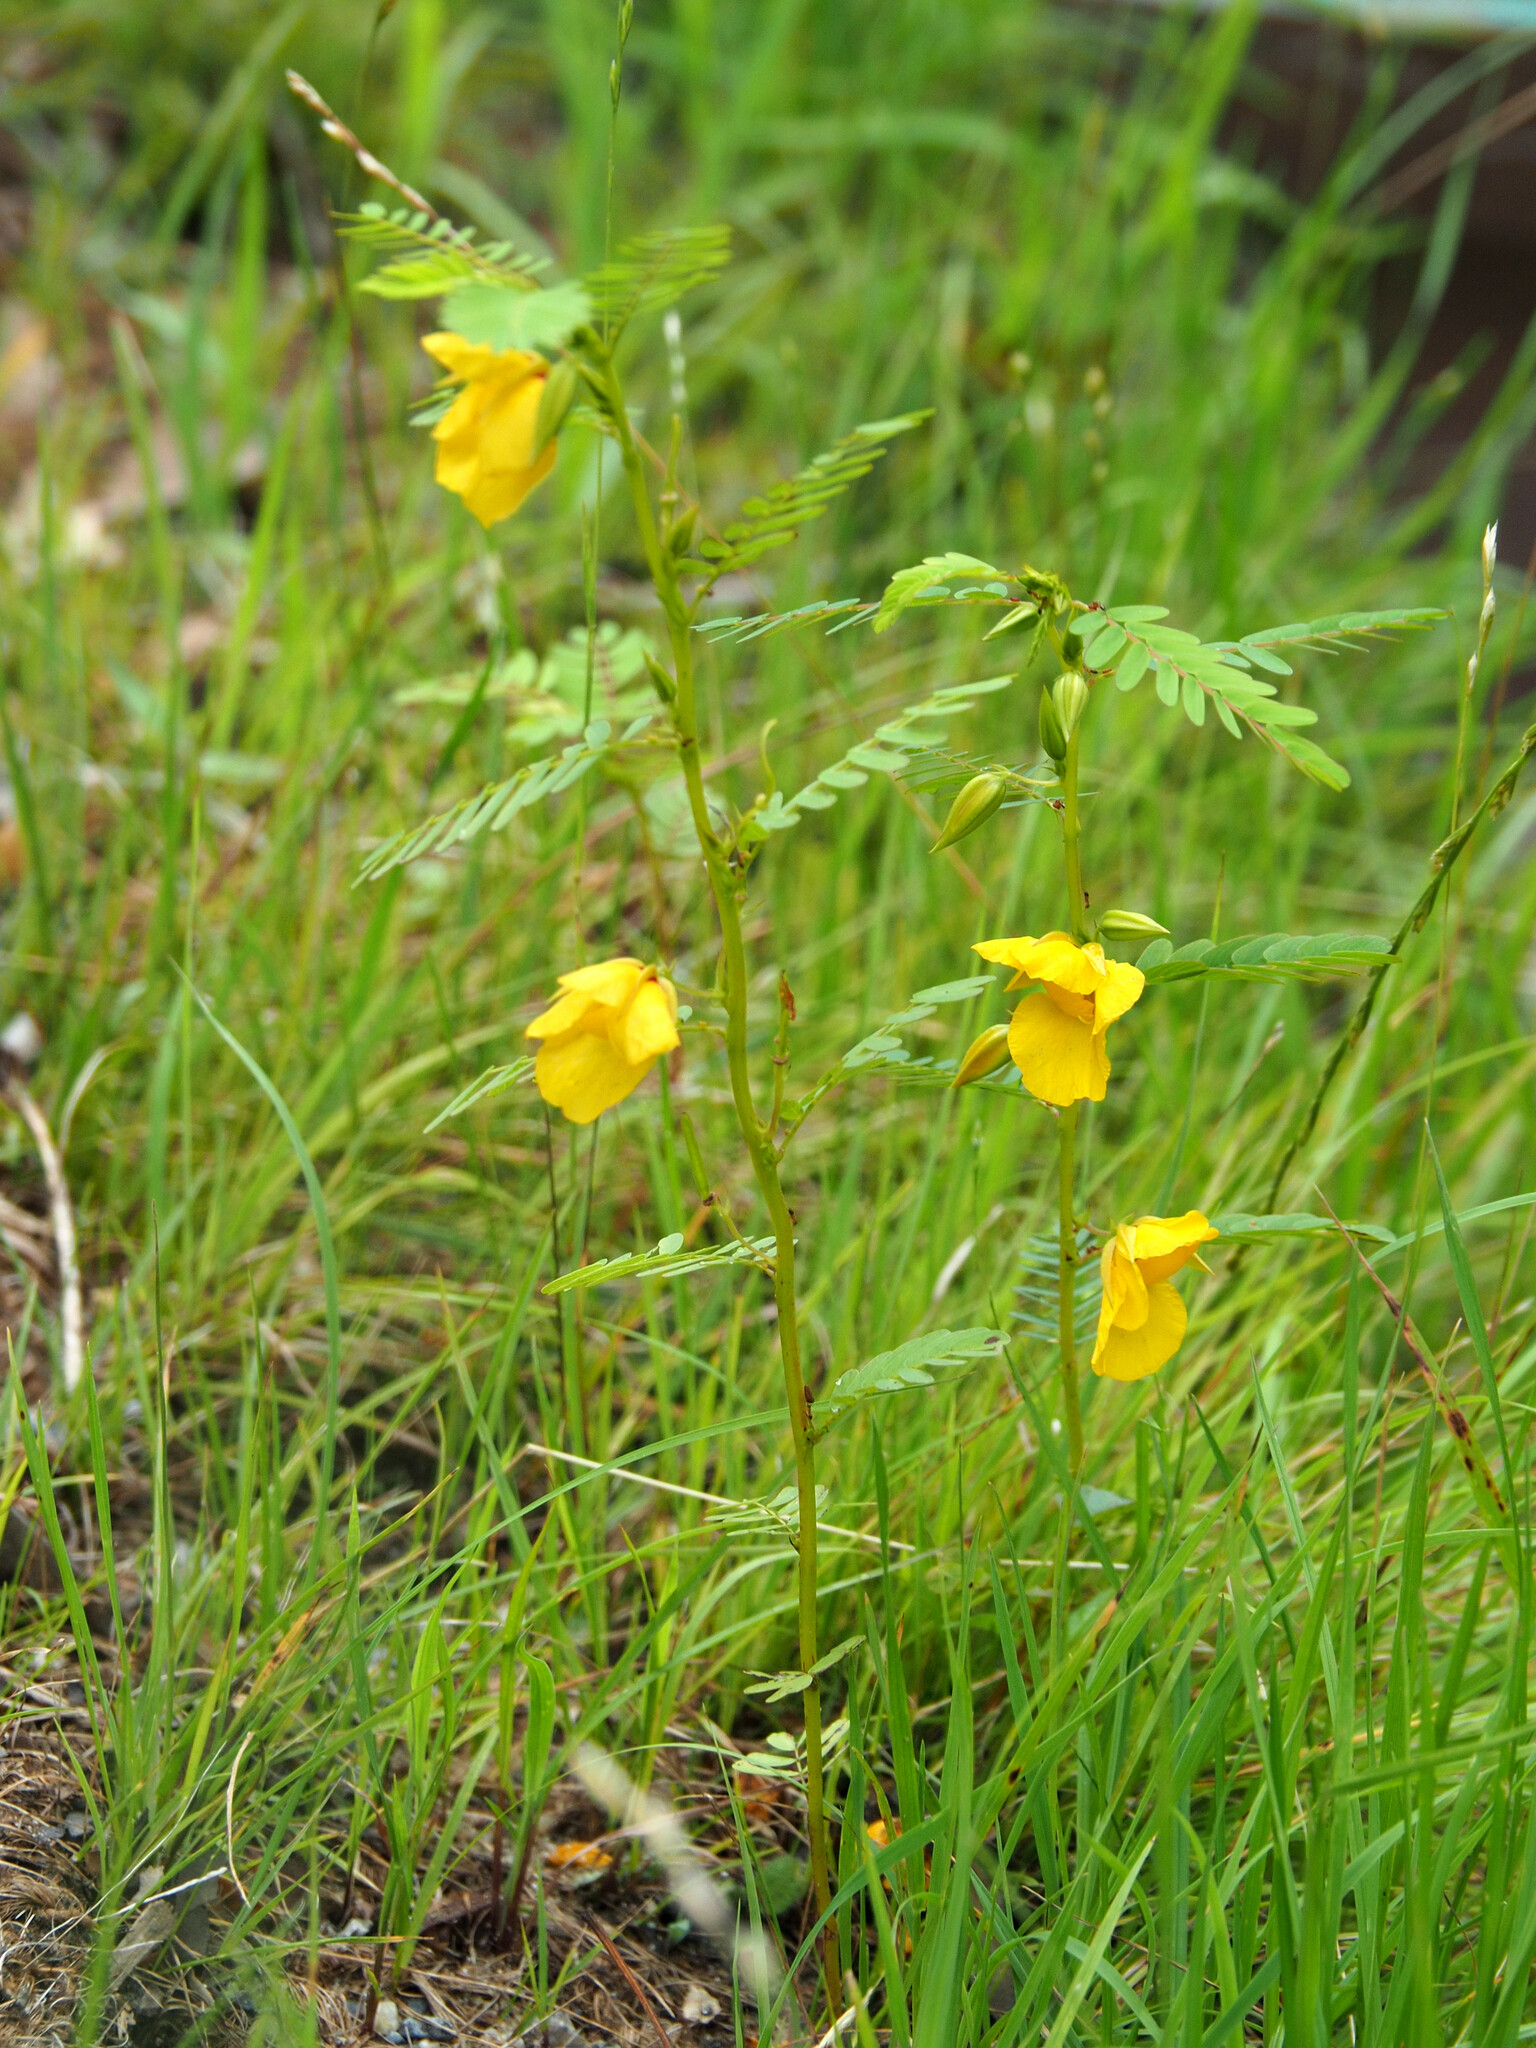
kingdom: Plantae
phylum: Tracheophyta
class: Magnoliopsida
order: Fabales
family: Fabaceae
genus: Chamaecrista
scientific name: Chamaecrista fasciculata
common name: Golden cassia
